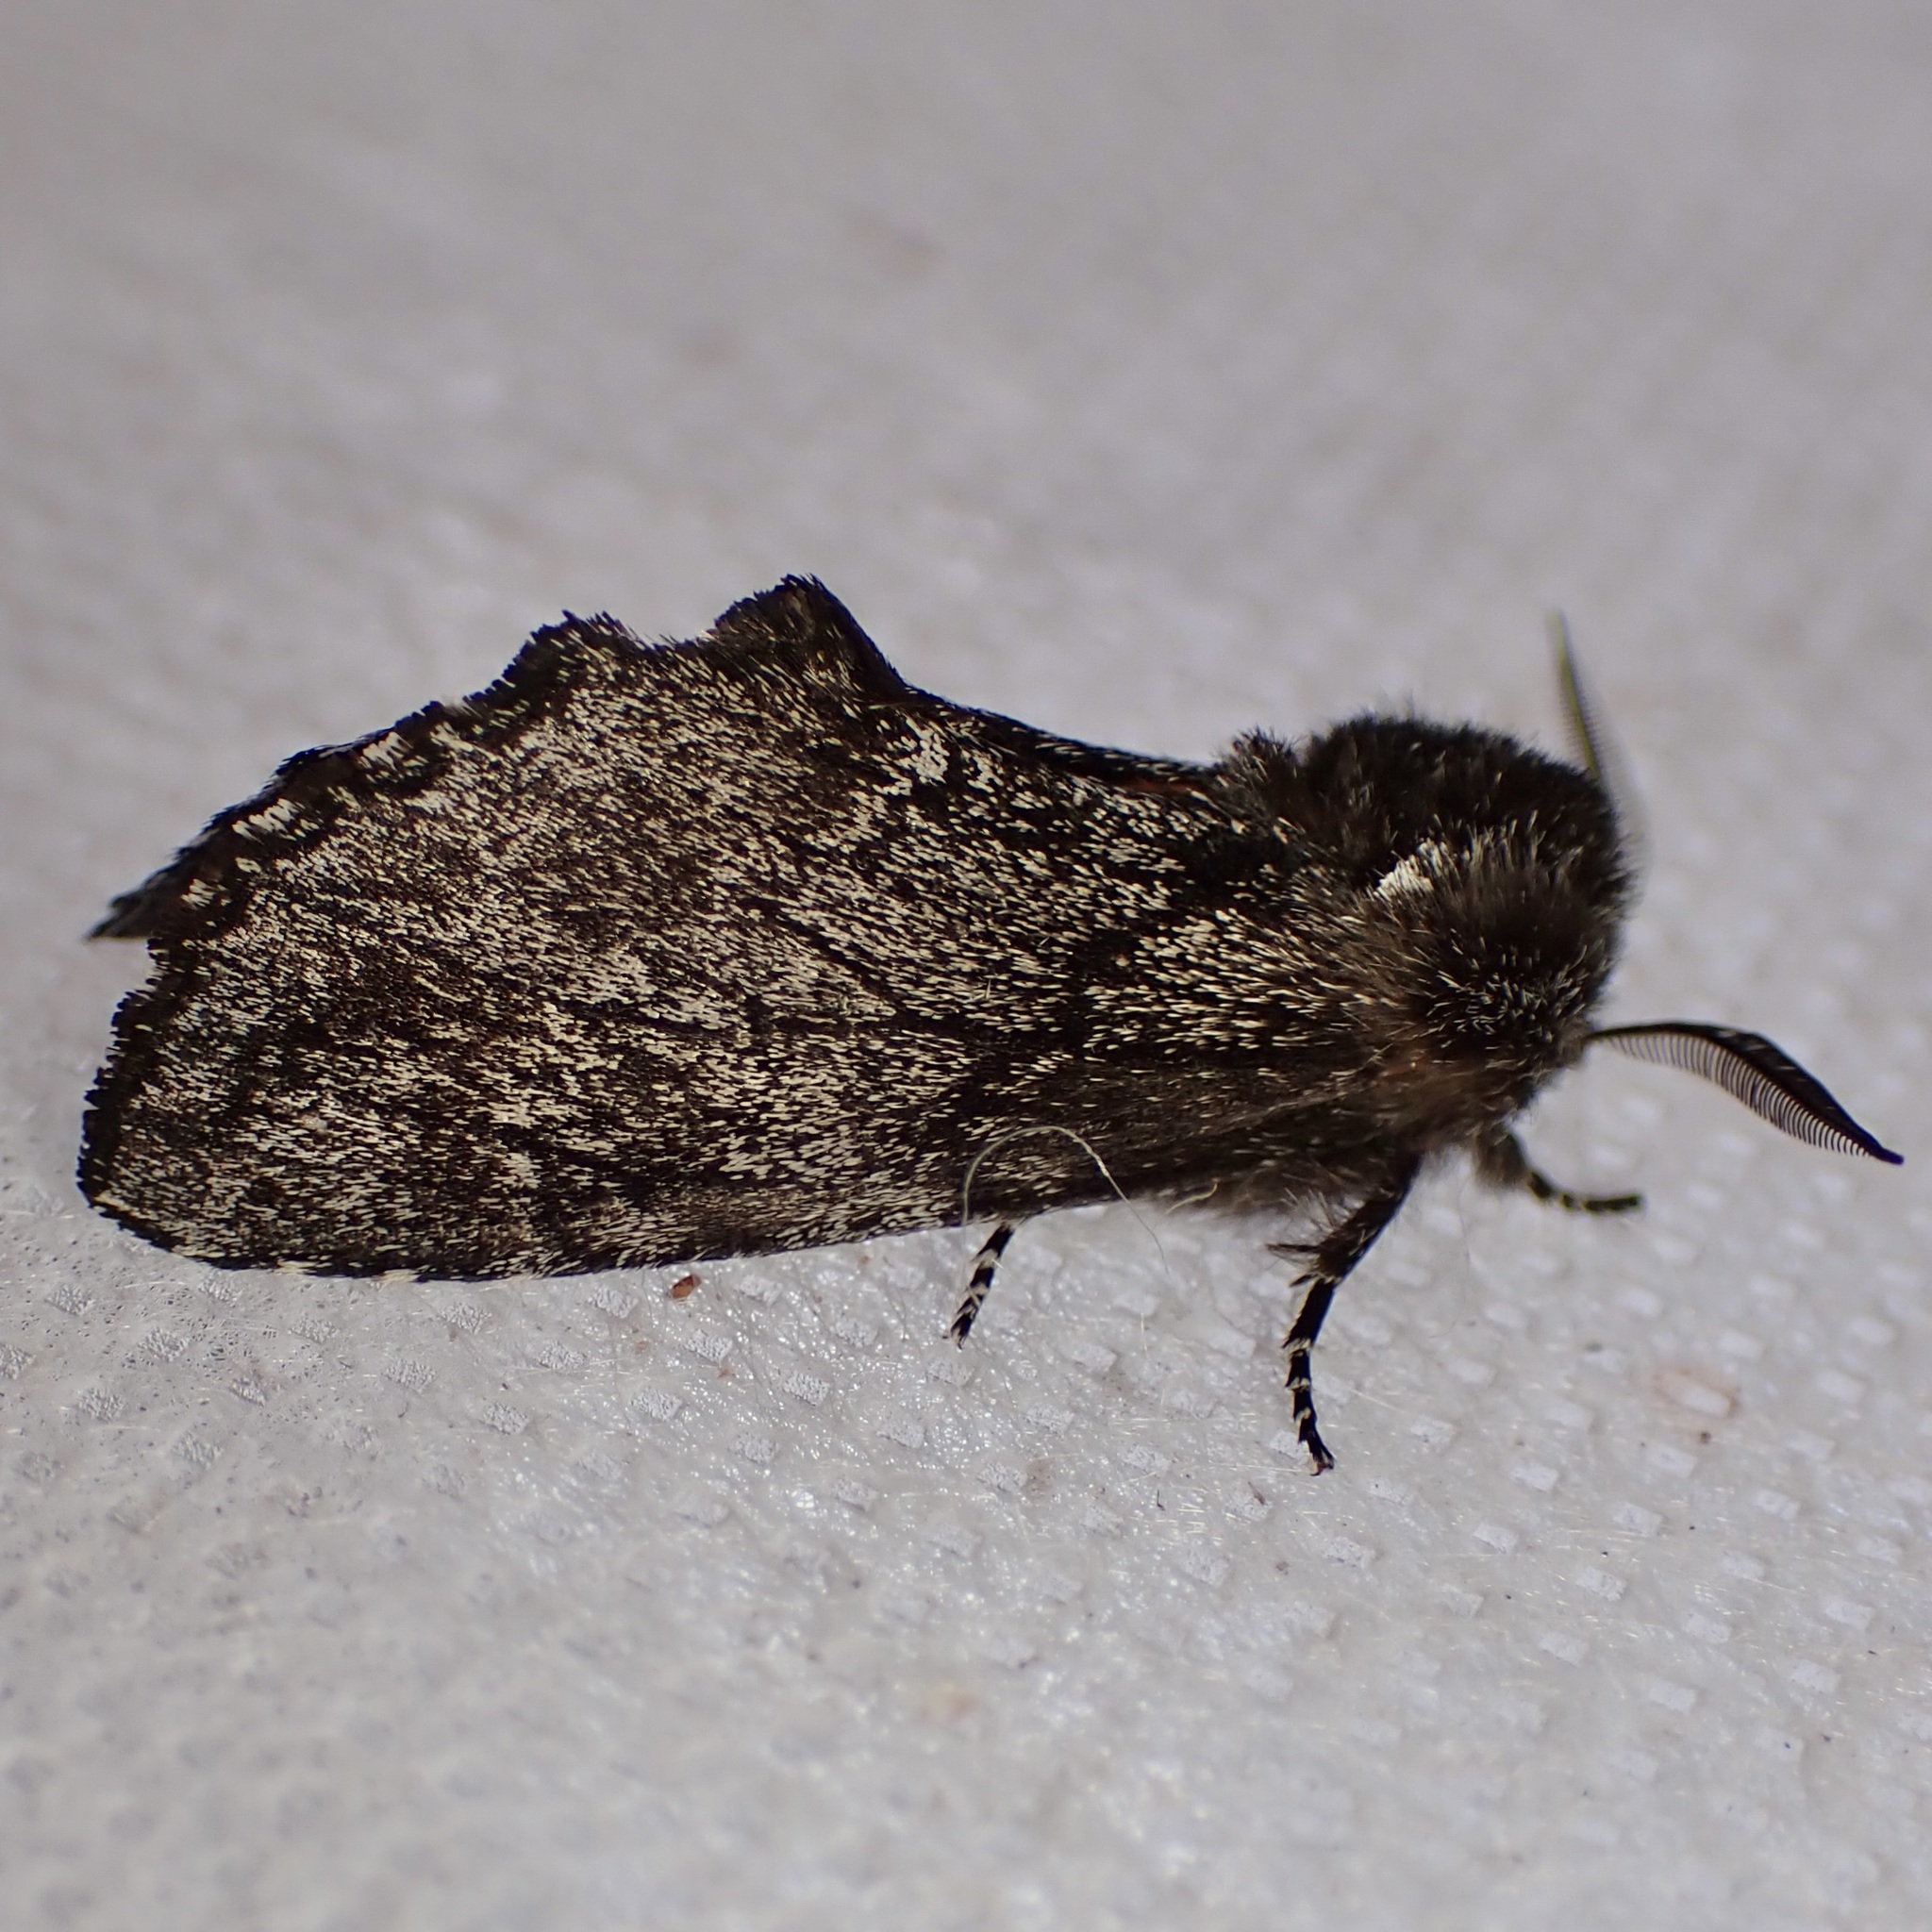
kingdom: Animalia
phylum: Arthropoda
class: Insecta
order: Lepidoptera
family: Notodontidae
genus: Cargida
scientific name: Cargida pyrrha
